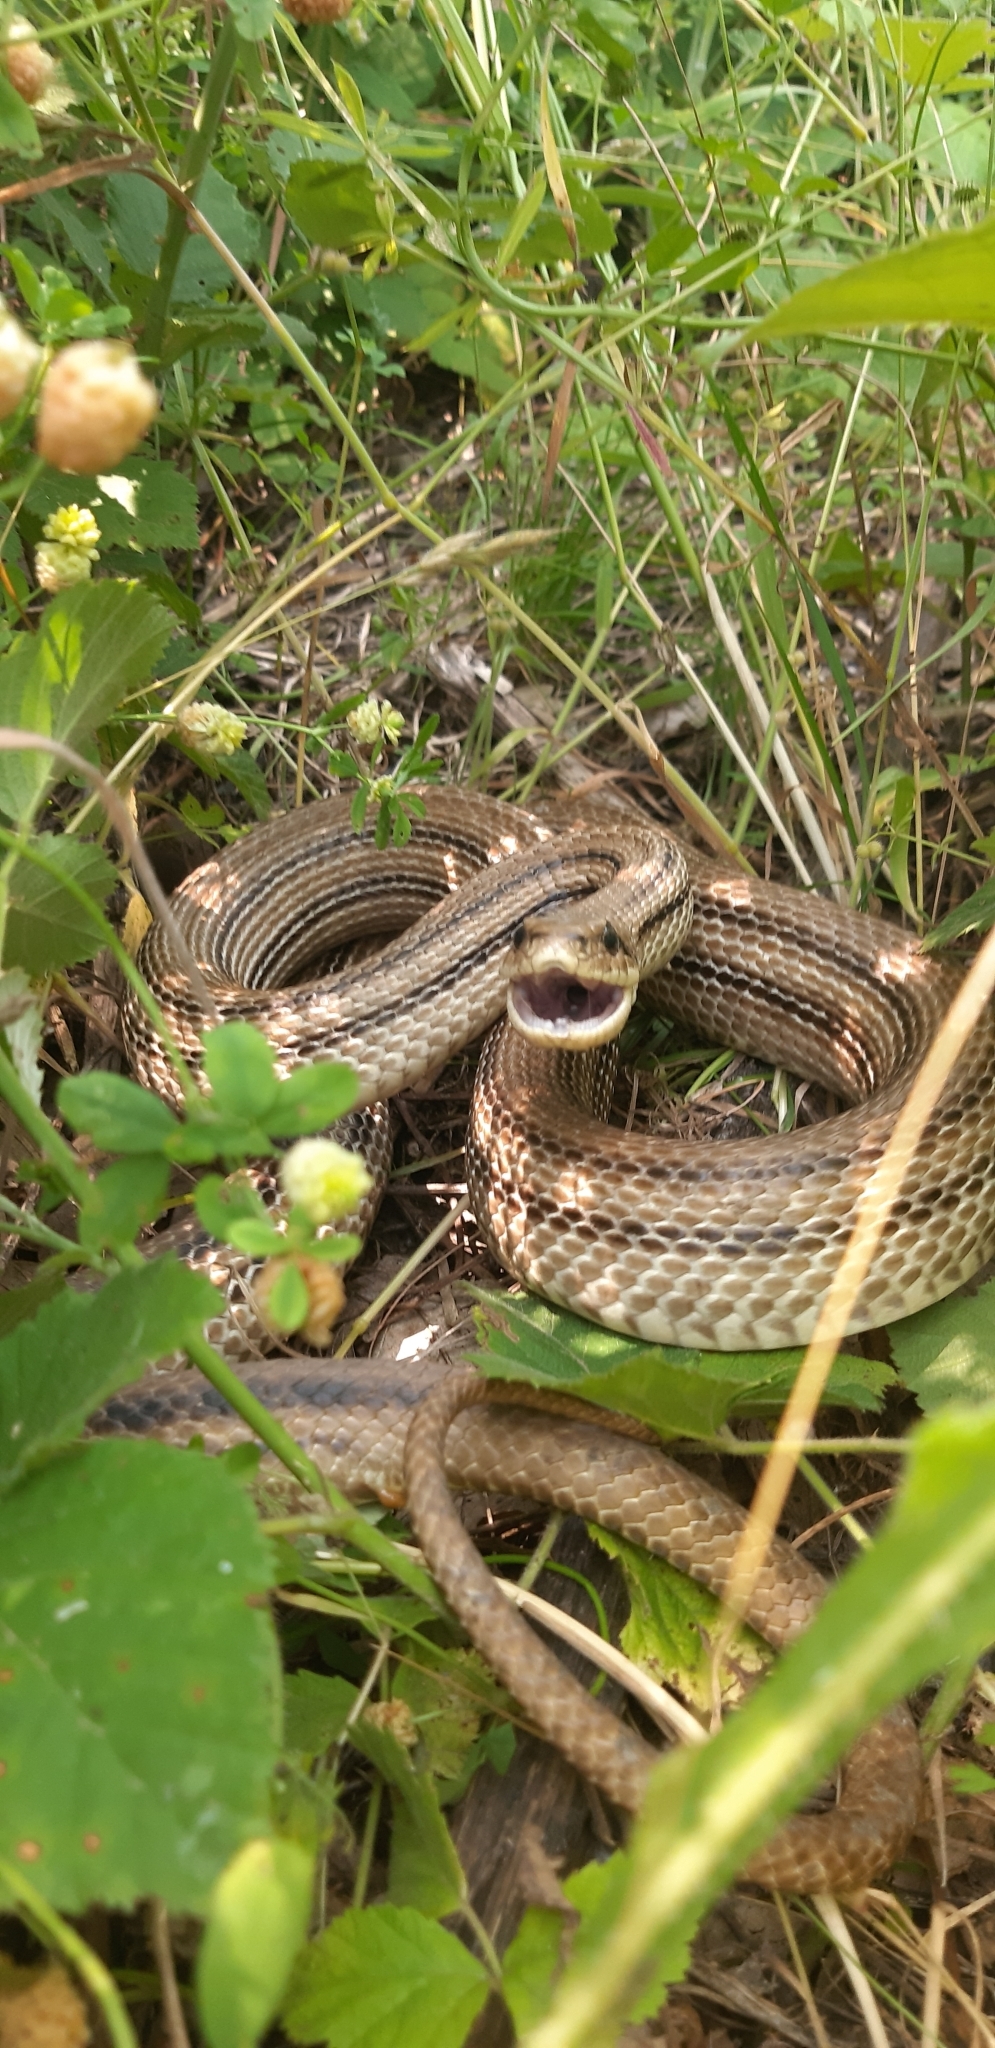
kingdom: Animalia
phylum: Chordata
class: Squamata
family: Colubridae
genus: Elaphe
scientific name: Elaphe quatuorlineata
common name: Four-lined snake
